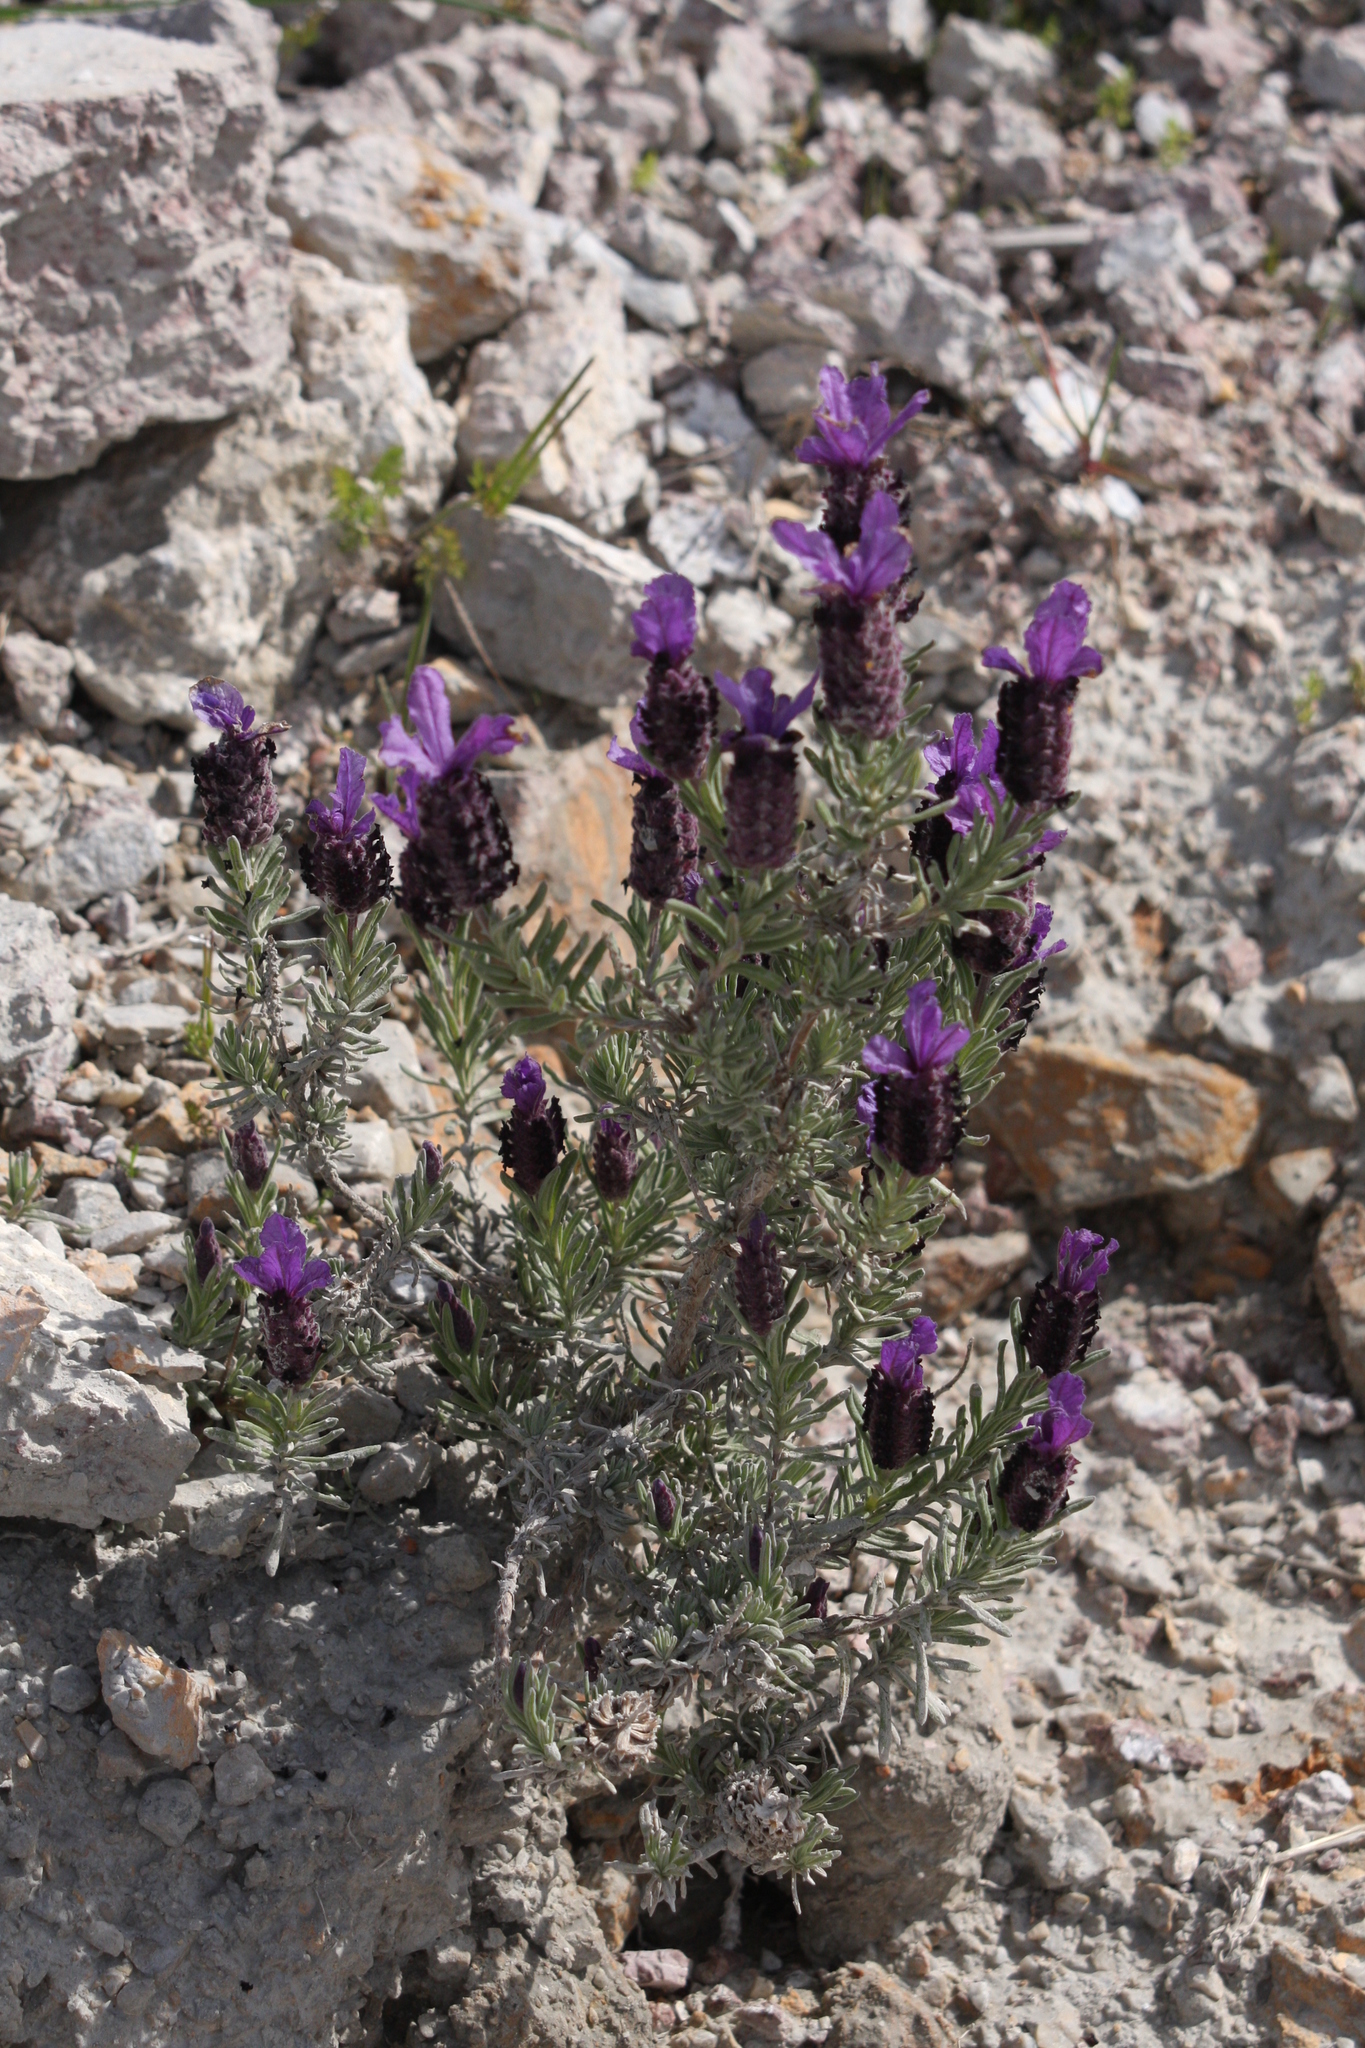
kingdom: Plantae
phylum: Tracheophyta
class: Magnoliopsida
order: Lamiales
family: Lamiaceae
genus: Lavandula
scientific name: Lavandula stoechas
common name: French lavender
